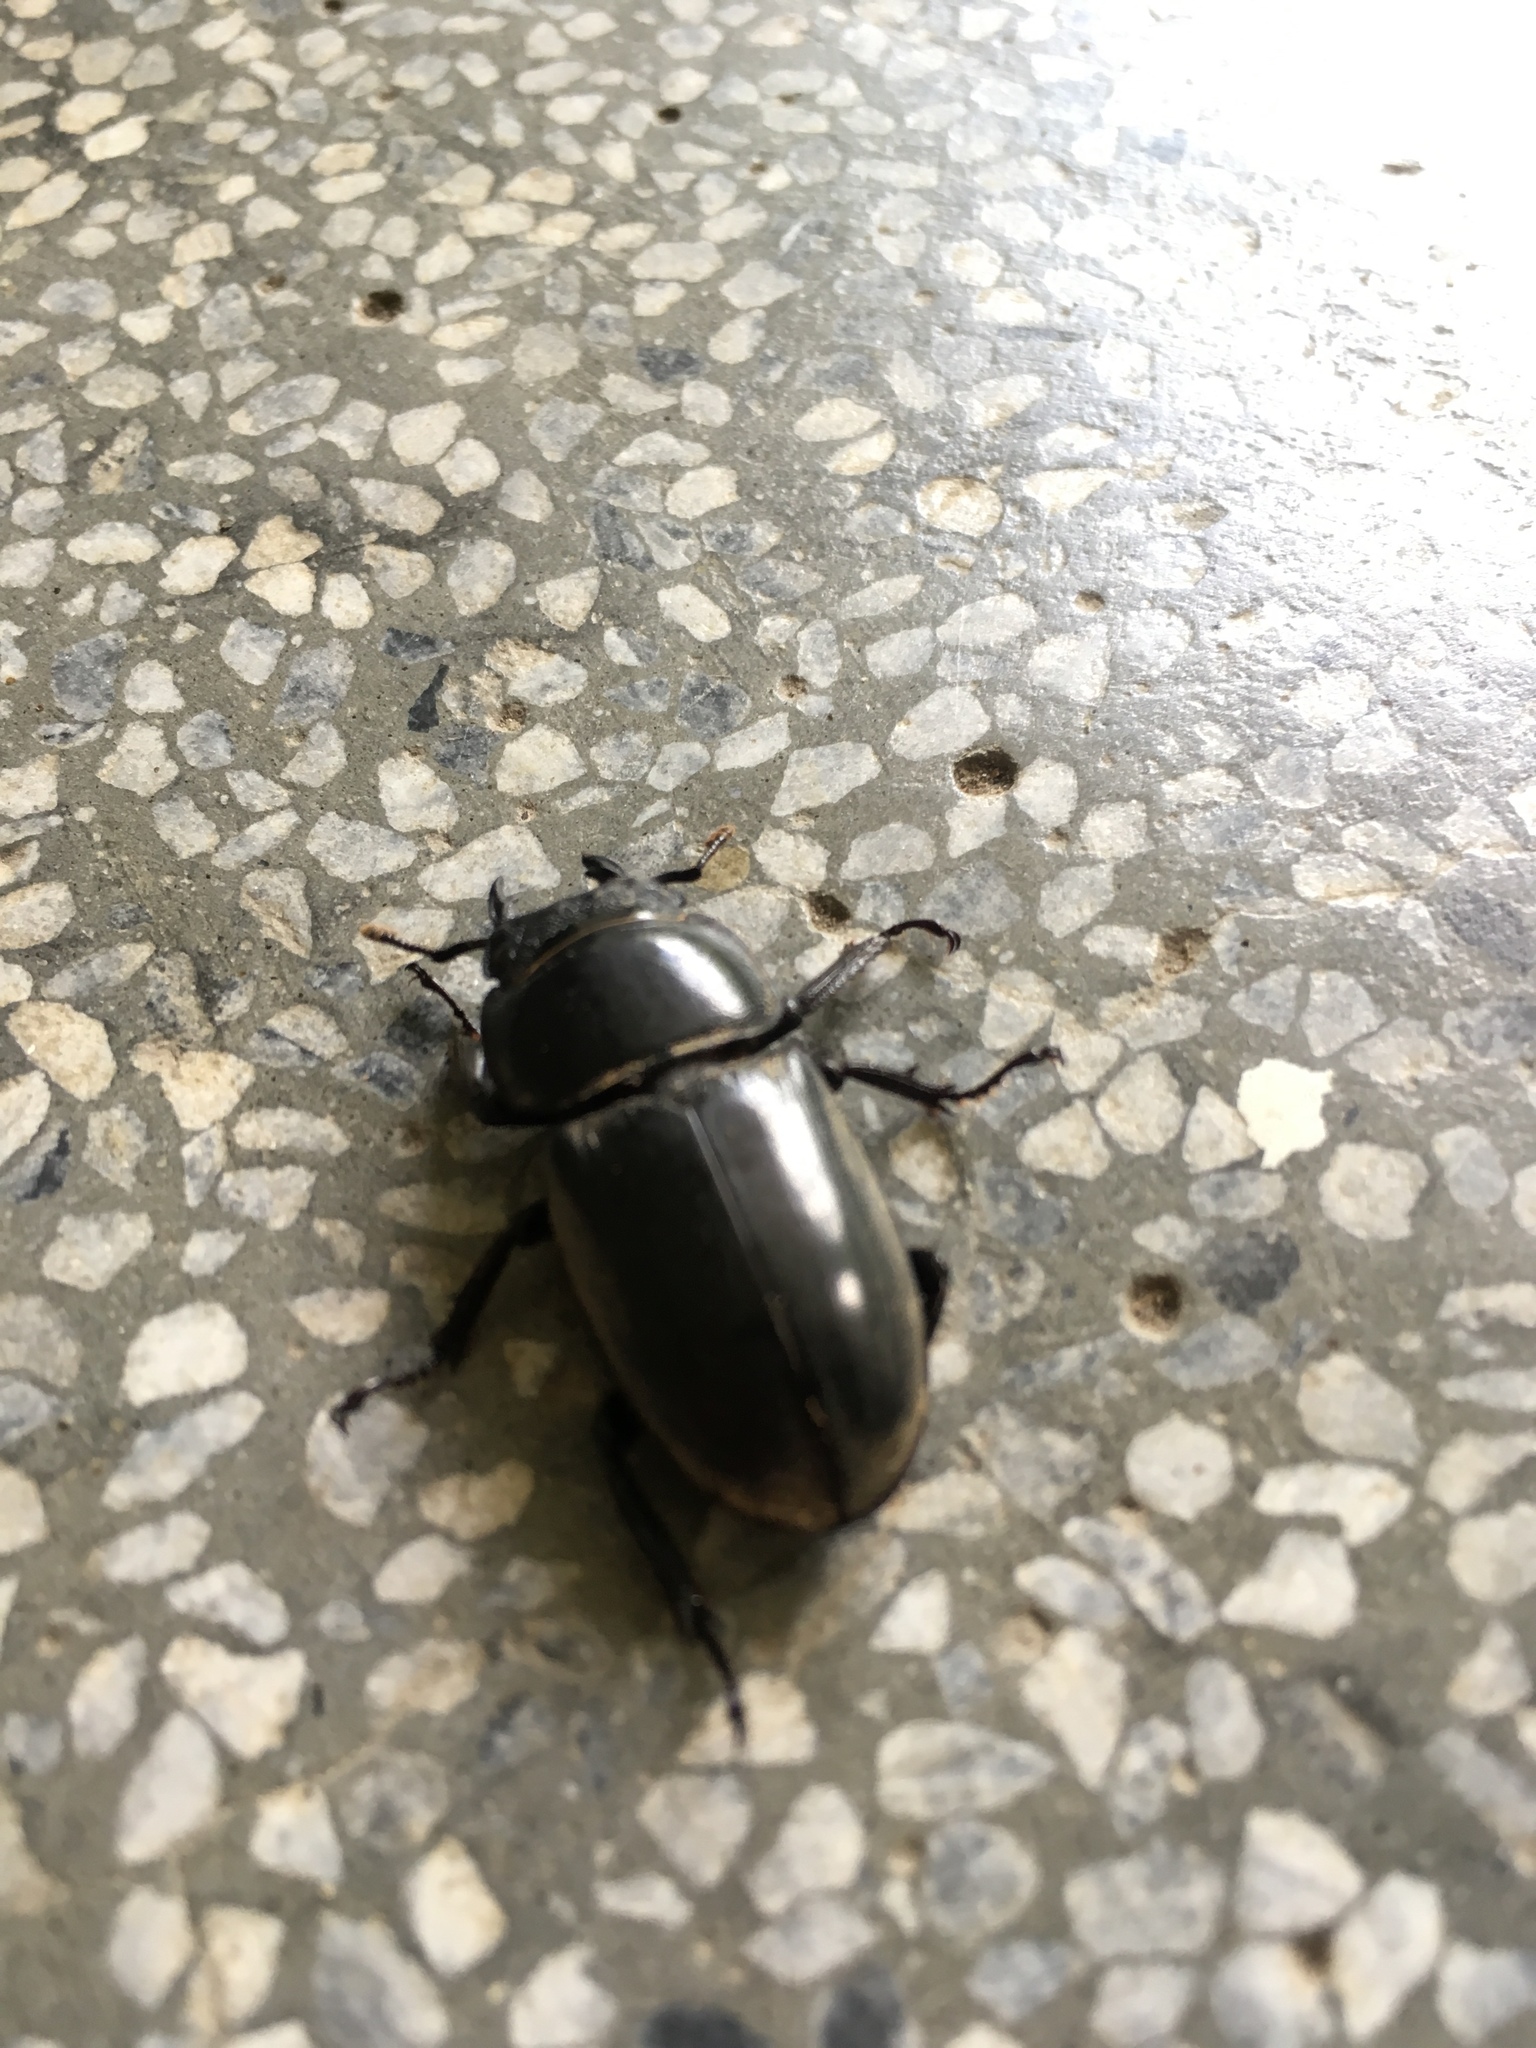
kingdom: Animalia
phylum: Arthropoda
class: Insecta
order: Coleoptera
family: Lucanidae
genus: Serrognathus
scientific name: Serrognathus titanus
